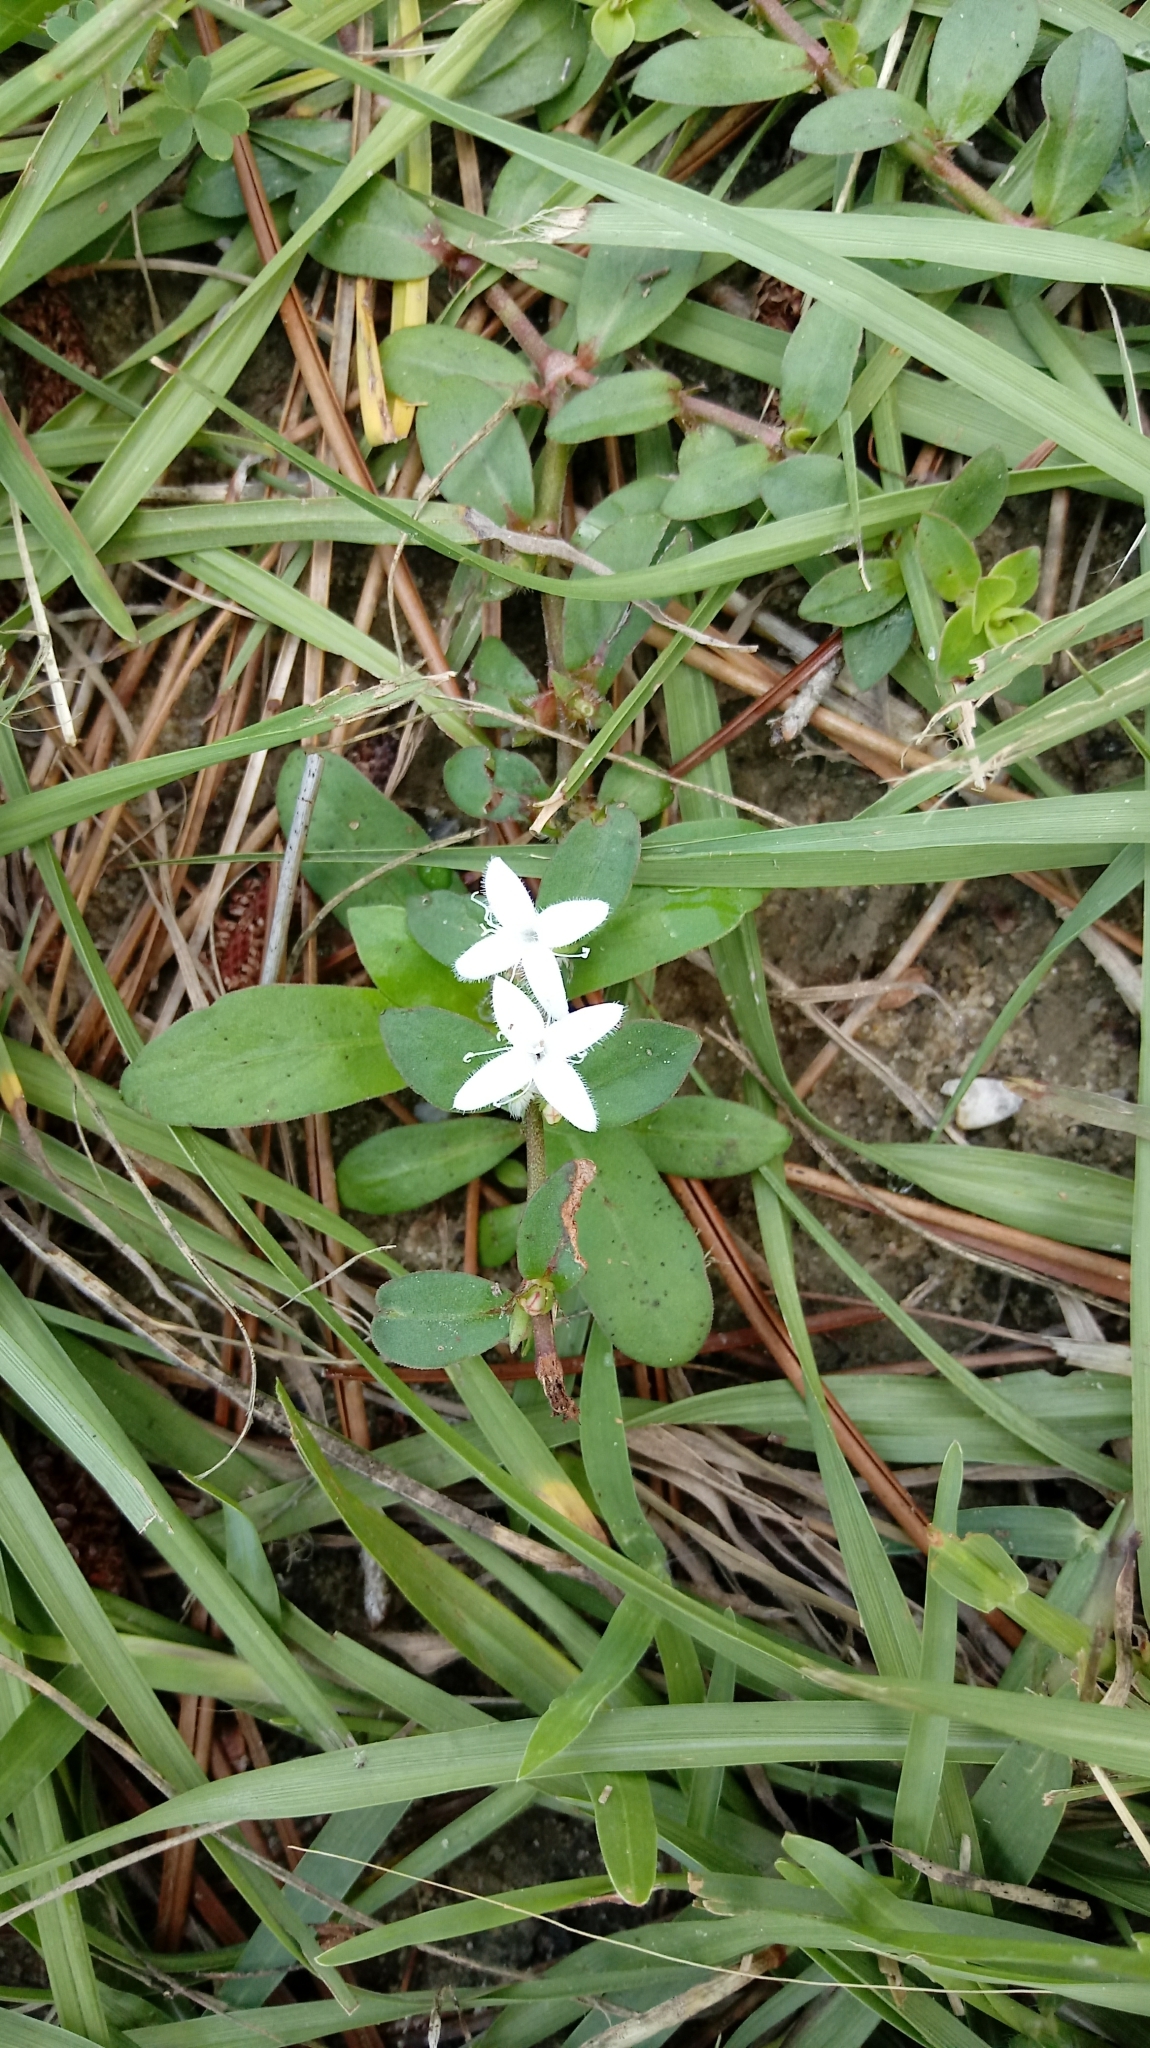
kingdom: Plantae
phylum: Tracheophyta
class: Magnoliopsida
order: Gentianales
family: Rubiaceae
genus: Diodia
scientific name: Diodia virginiana
